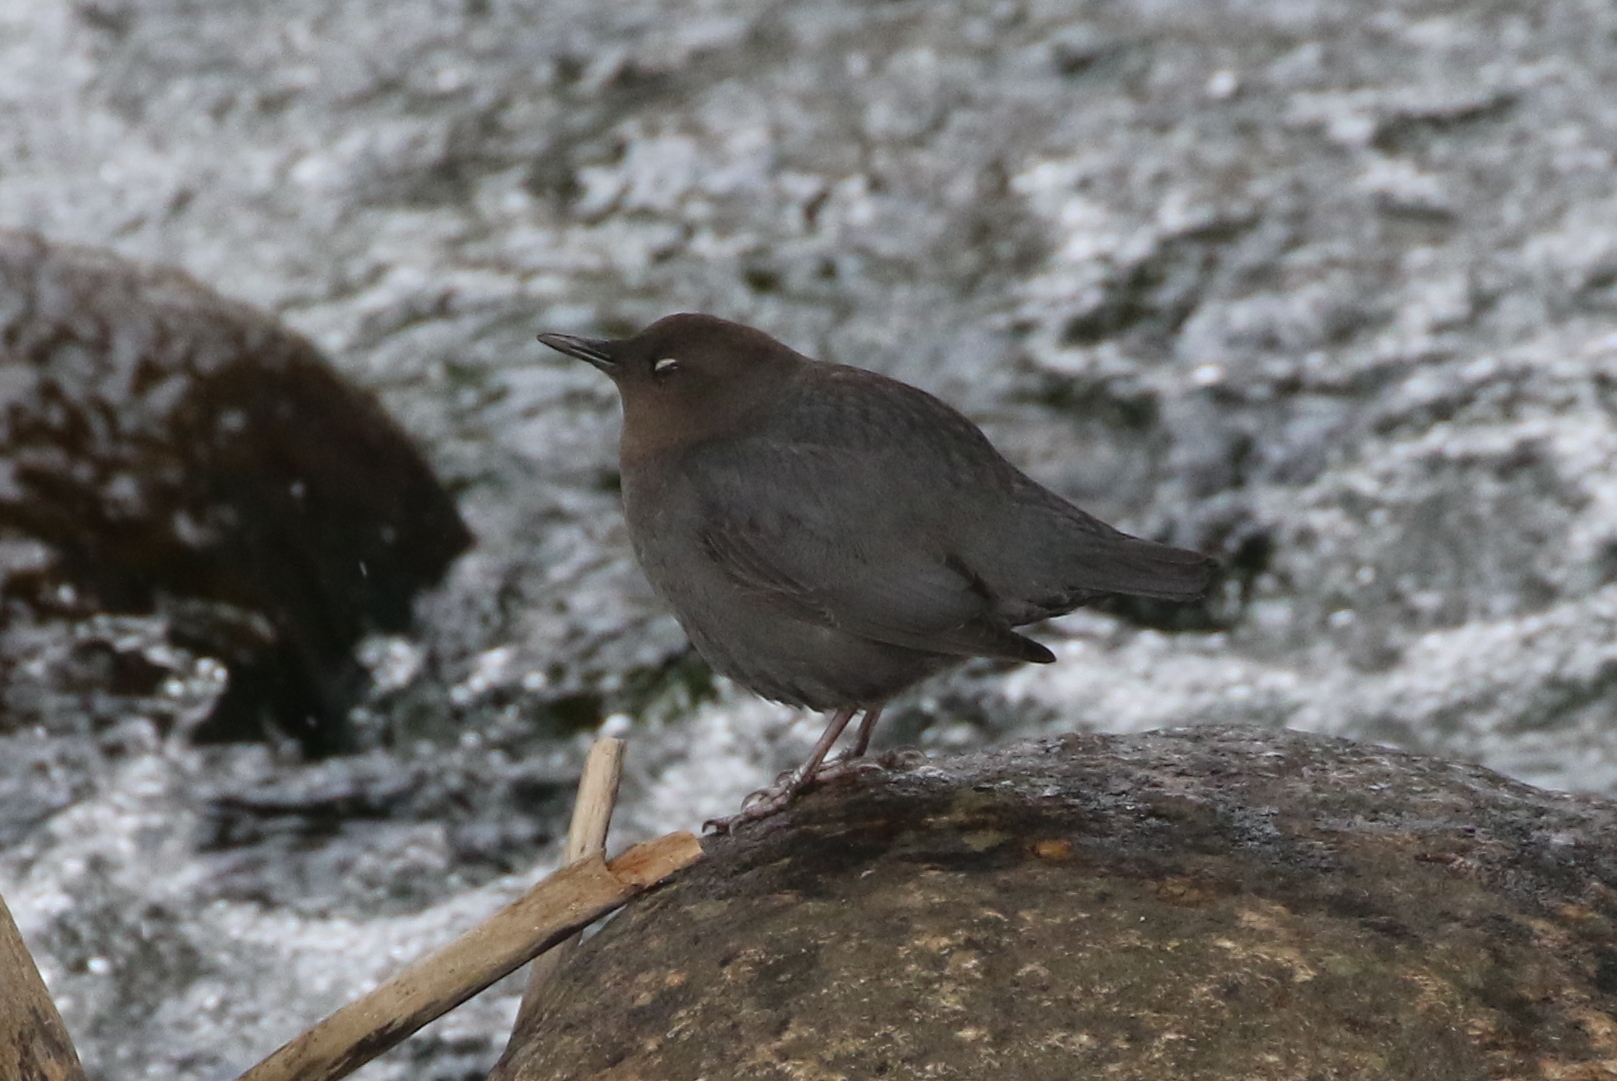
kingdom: Animalia
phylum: Chordata
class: Aves
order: Passeriformes
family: Cinclidae
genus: Cinclus
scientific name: Cinclus mexicanus
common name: American dipper
